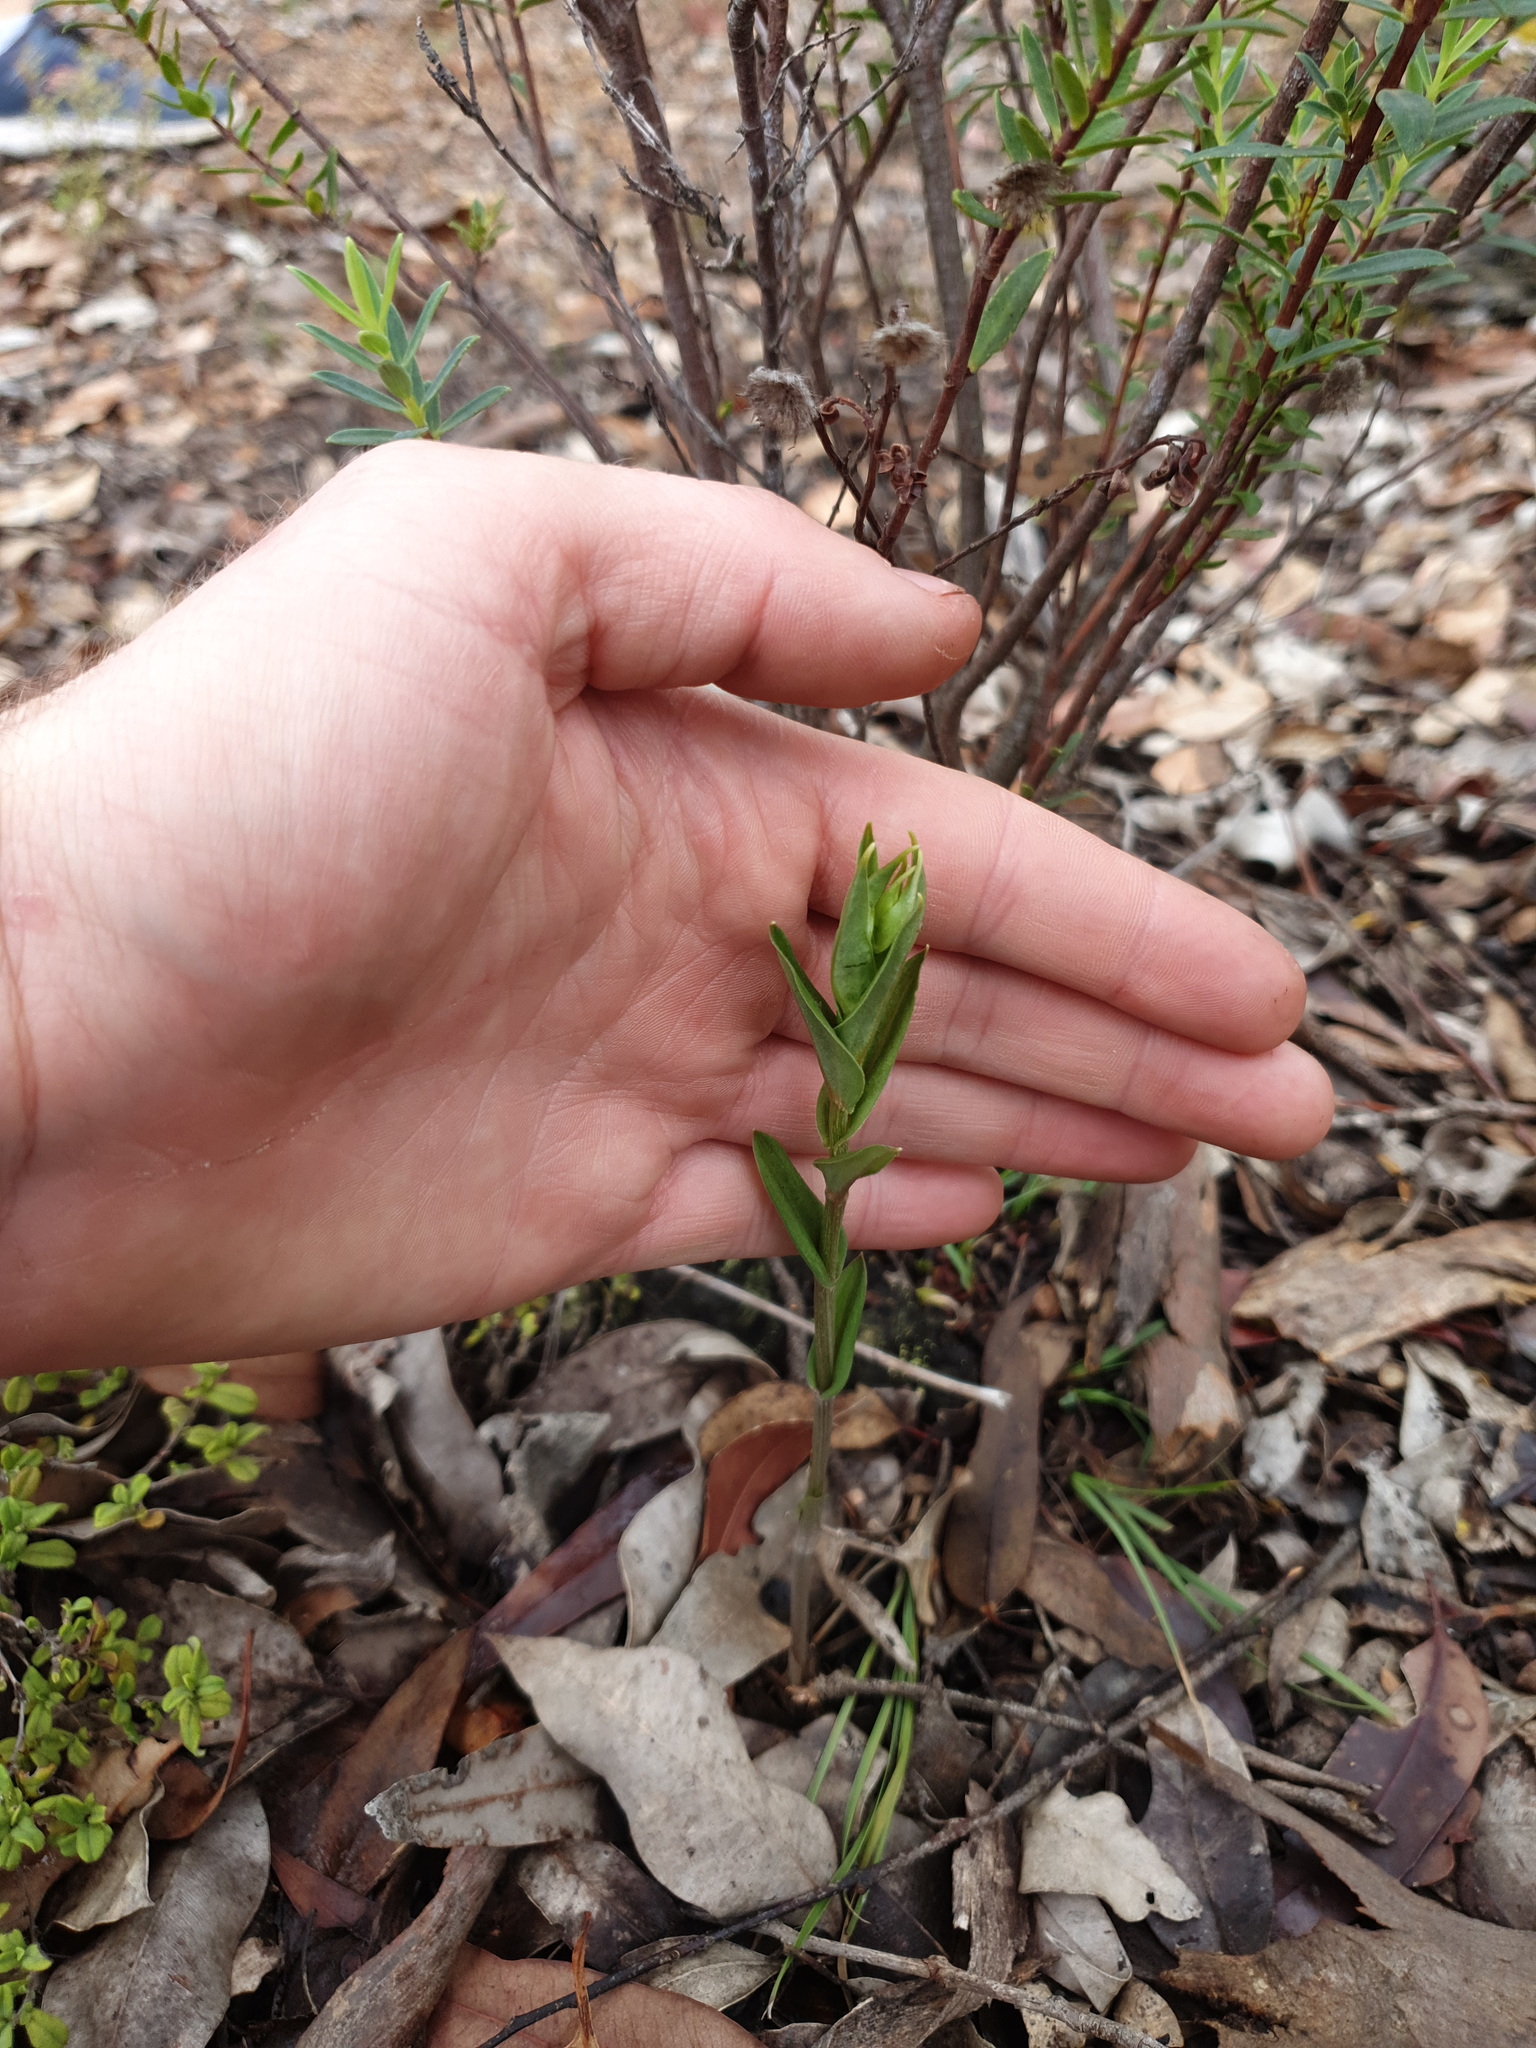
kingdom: Plantae
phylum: Tracheophyta
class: Liliopsida
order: Asparagales
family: Orchidaceae
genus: Pterostylis
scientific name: Pterostylis vittata
